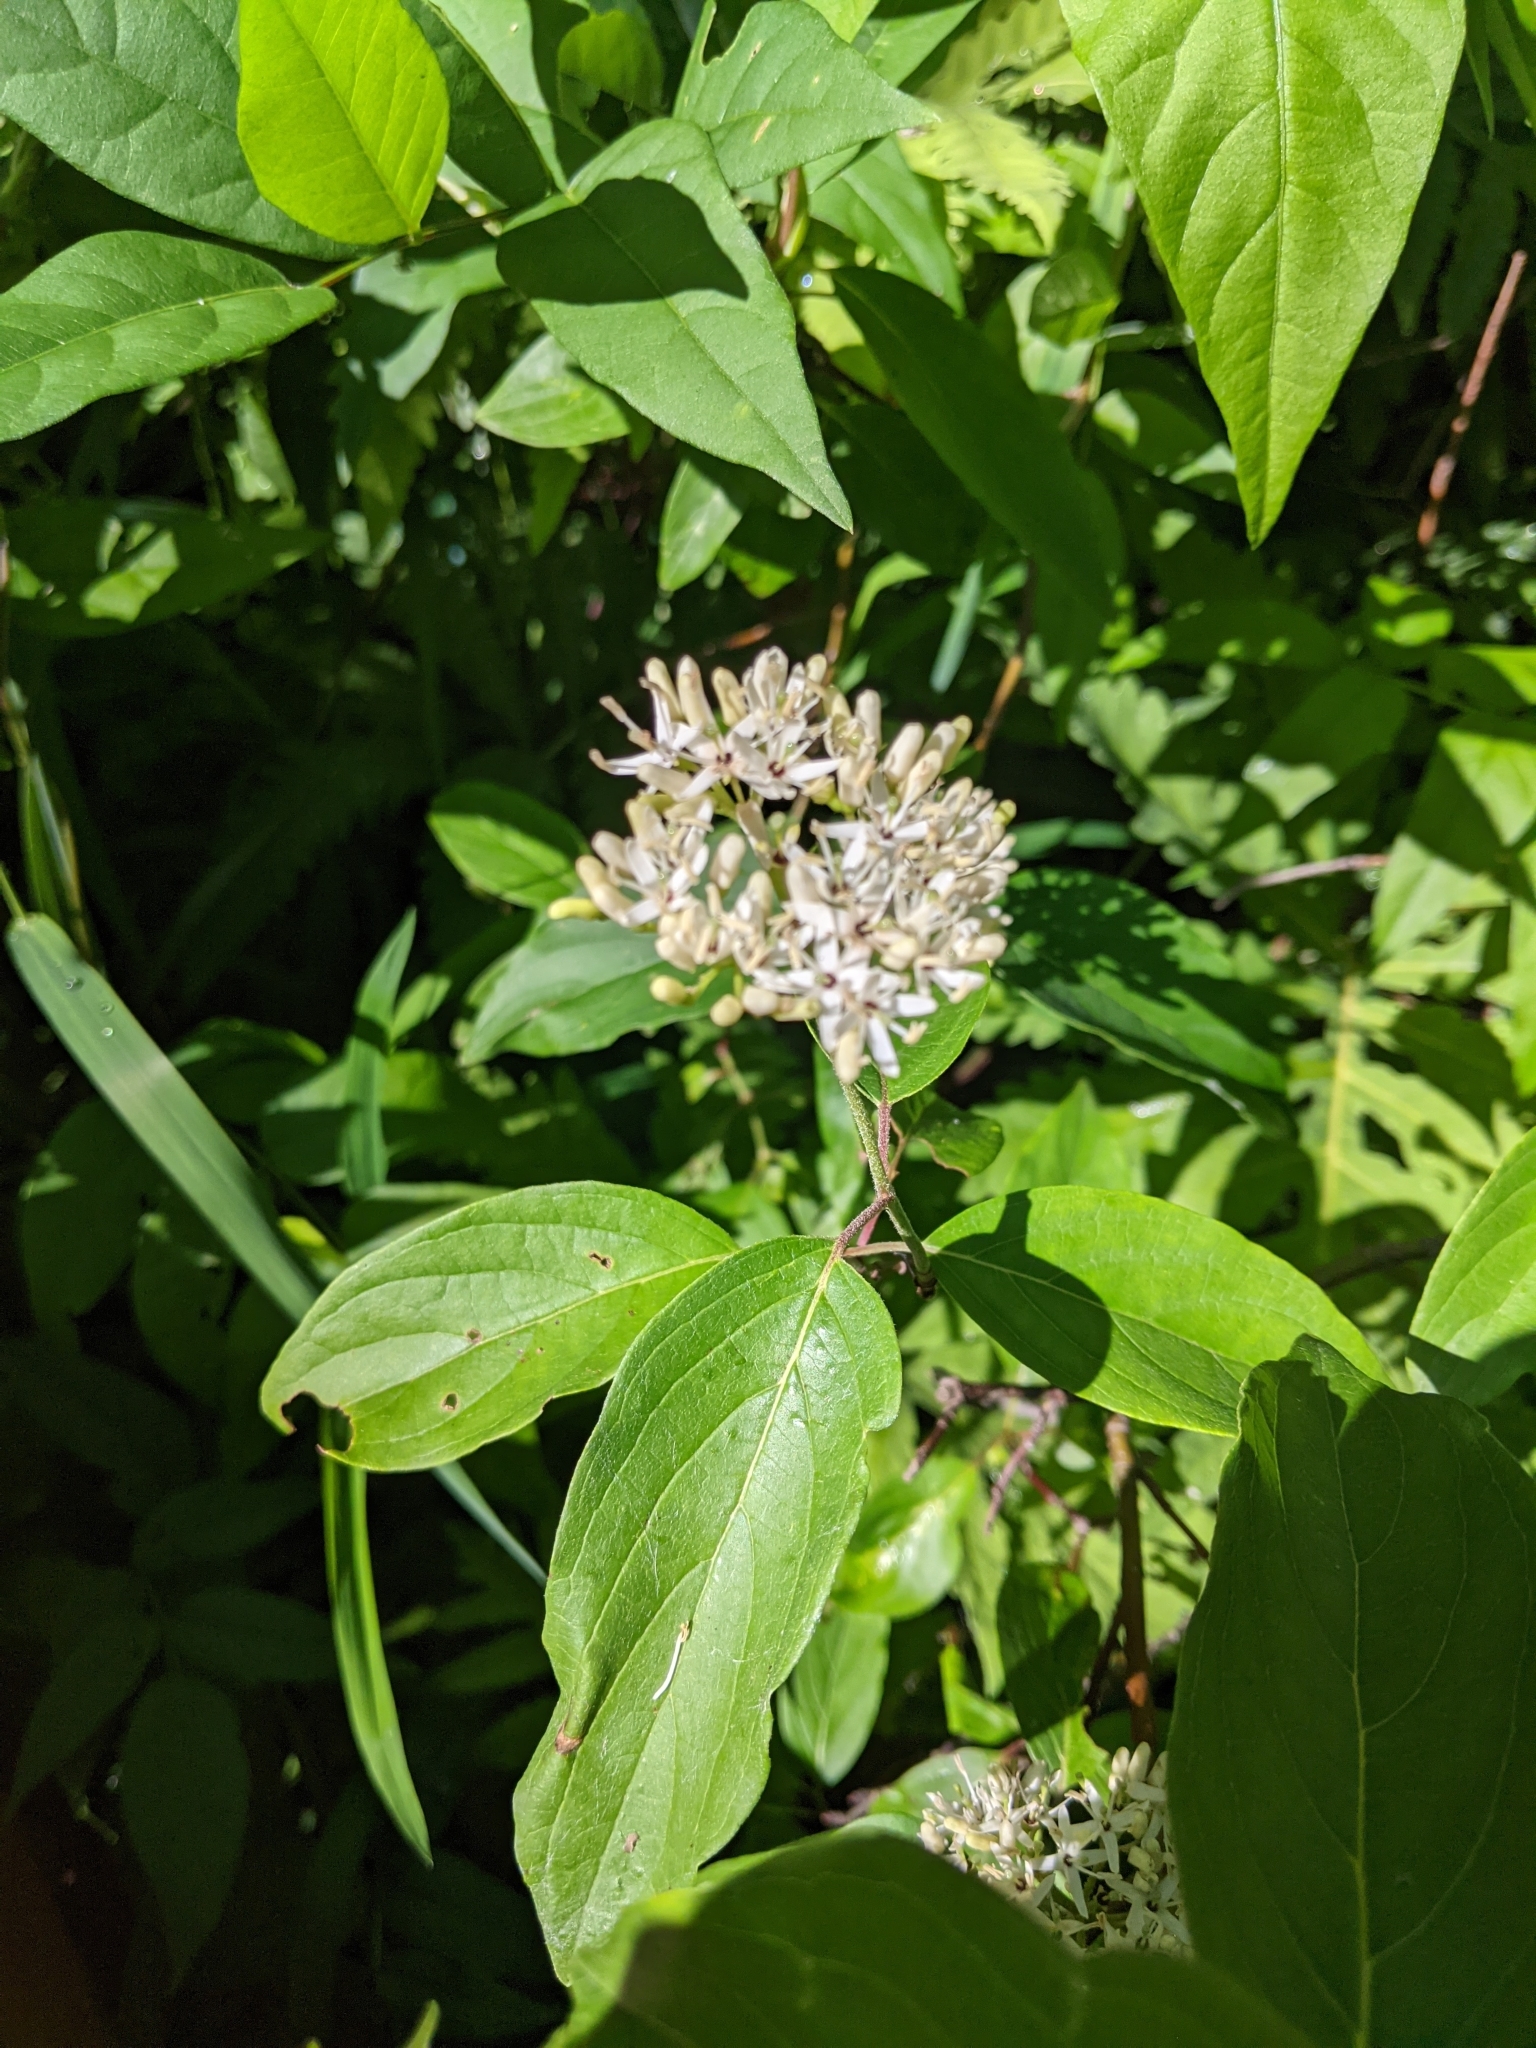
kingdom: Plantae
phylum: Tracheophyta
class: Magnoliopsida
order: Cornales
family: Cornaceae
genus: Cornus
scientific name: Cornus amomum
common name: Silky dogwood
